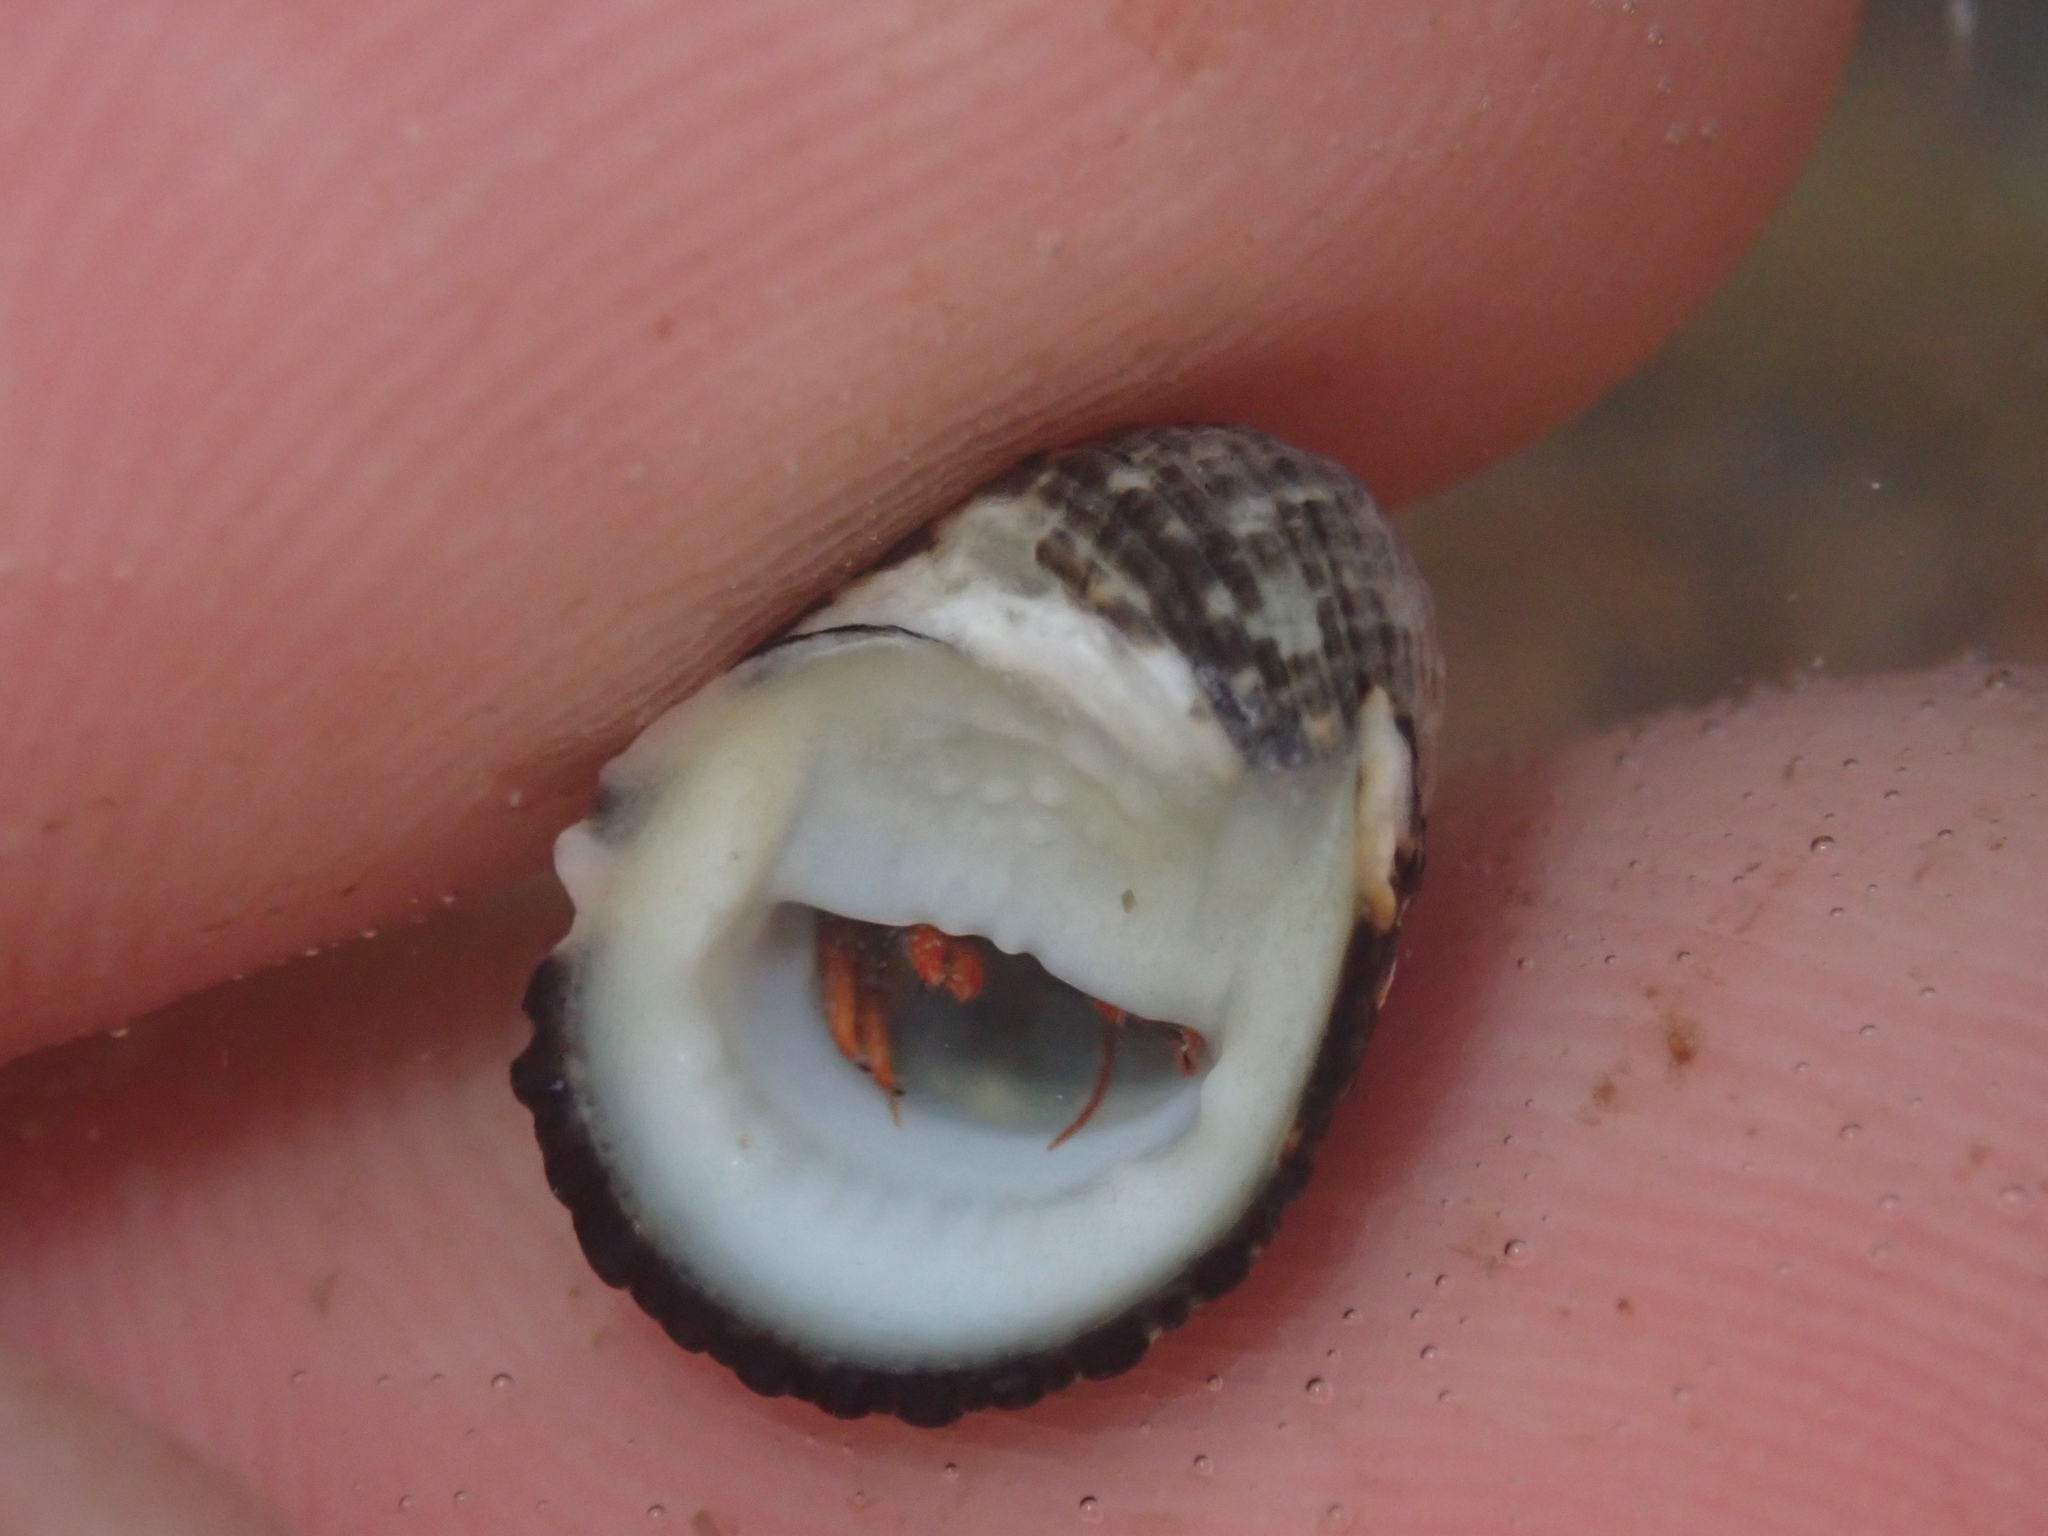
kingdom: Animalia
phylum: Mollusca
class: Gastropoda
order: Cycloneritida
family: Neritidae
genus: Nerita
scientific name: Nerita funiculata
